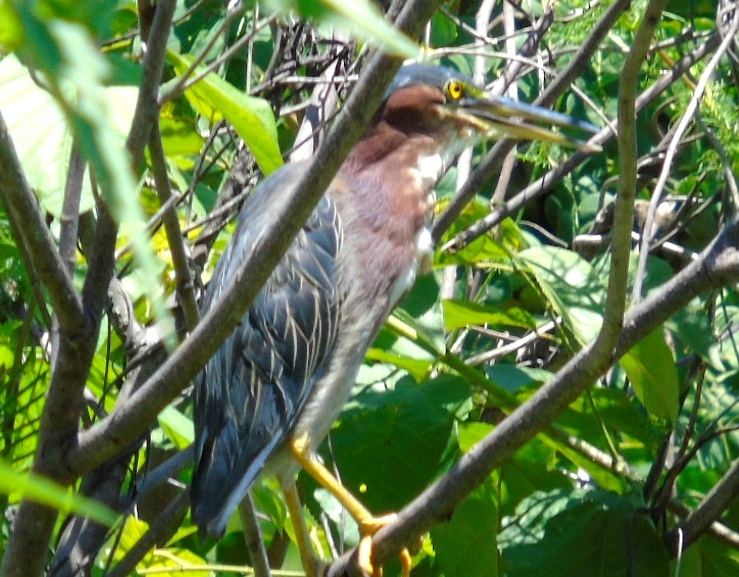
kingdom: Animalia
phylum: Chordata
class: Aves
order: Pelecaniformes
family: Ardeidae
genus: Butorides
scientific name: Butorides virescens
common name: Green heron
